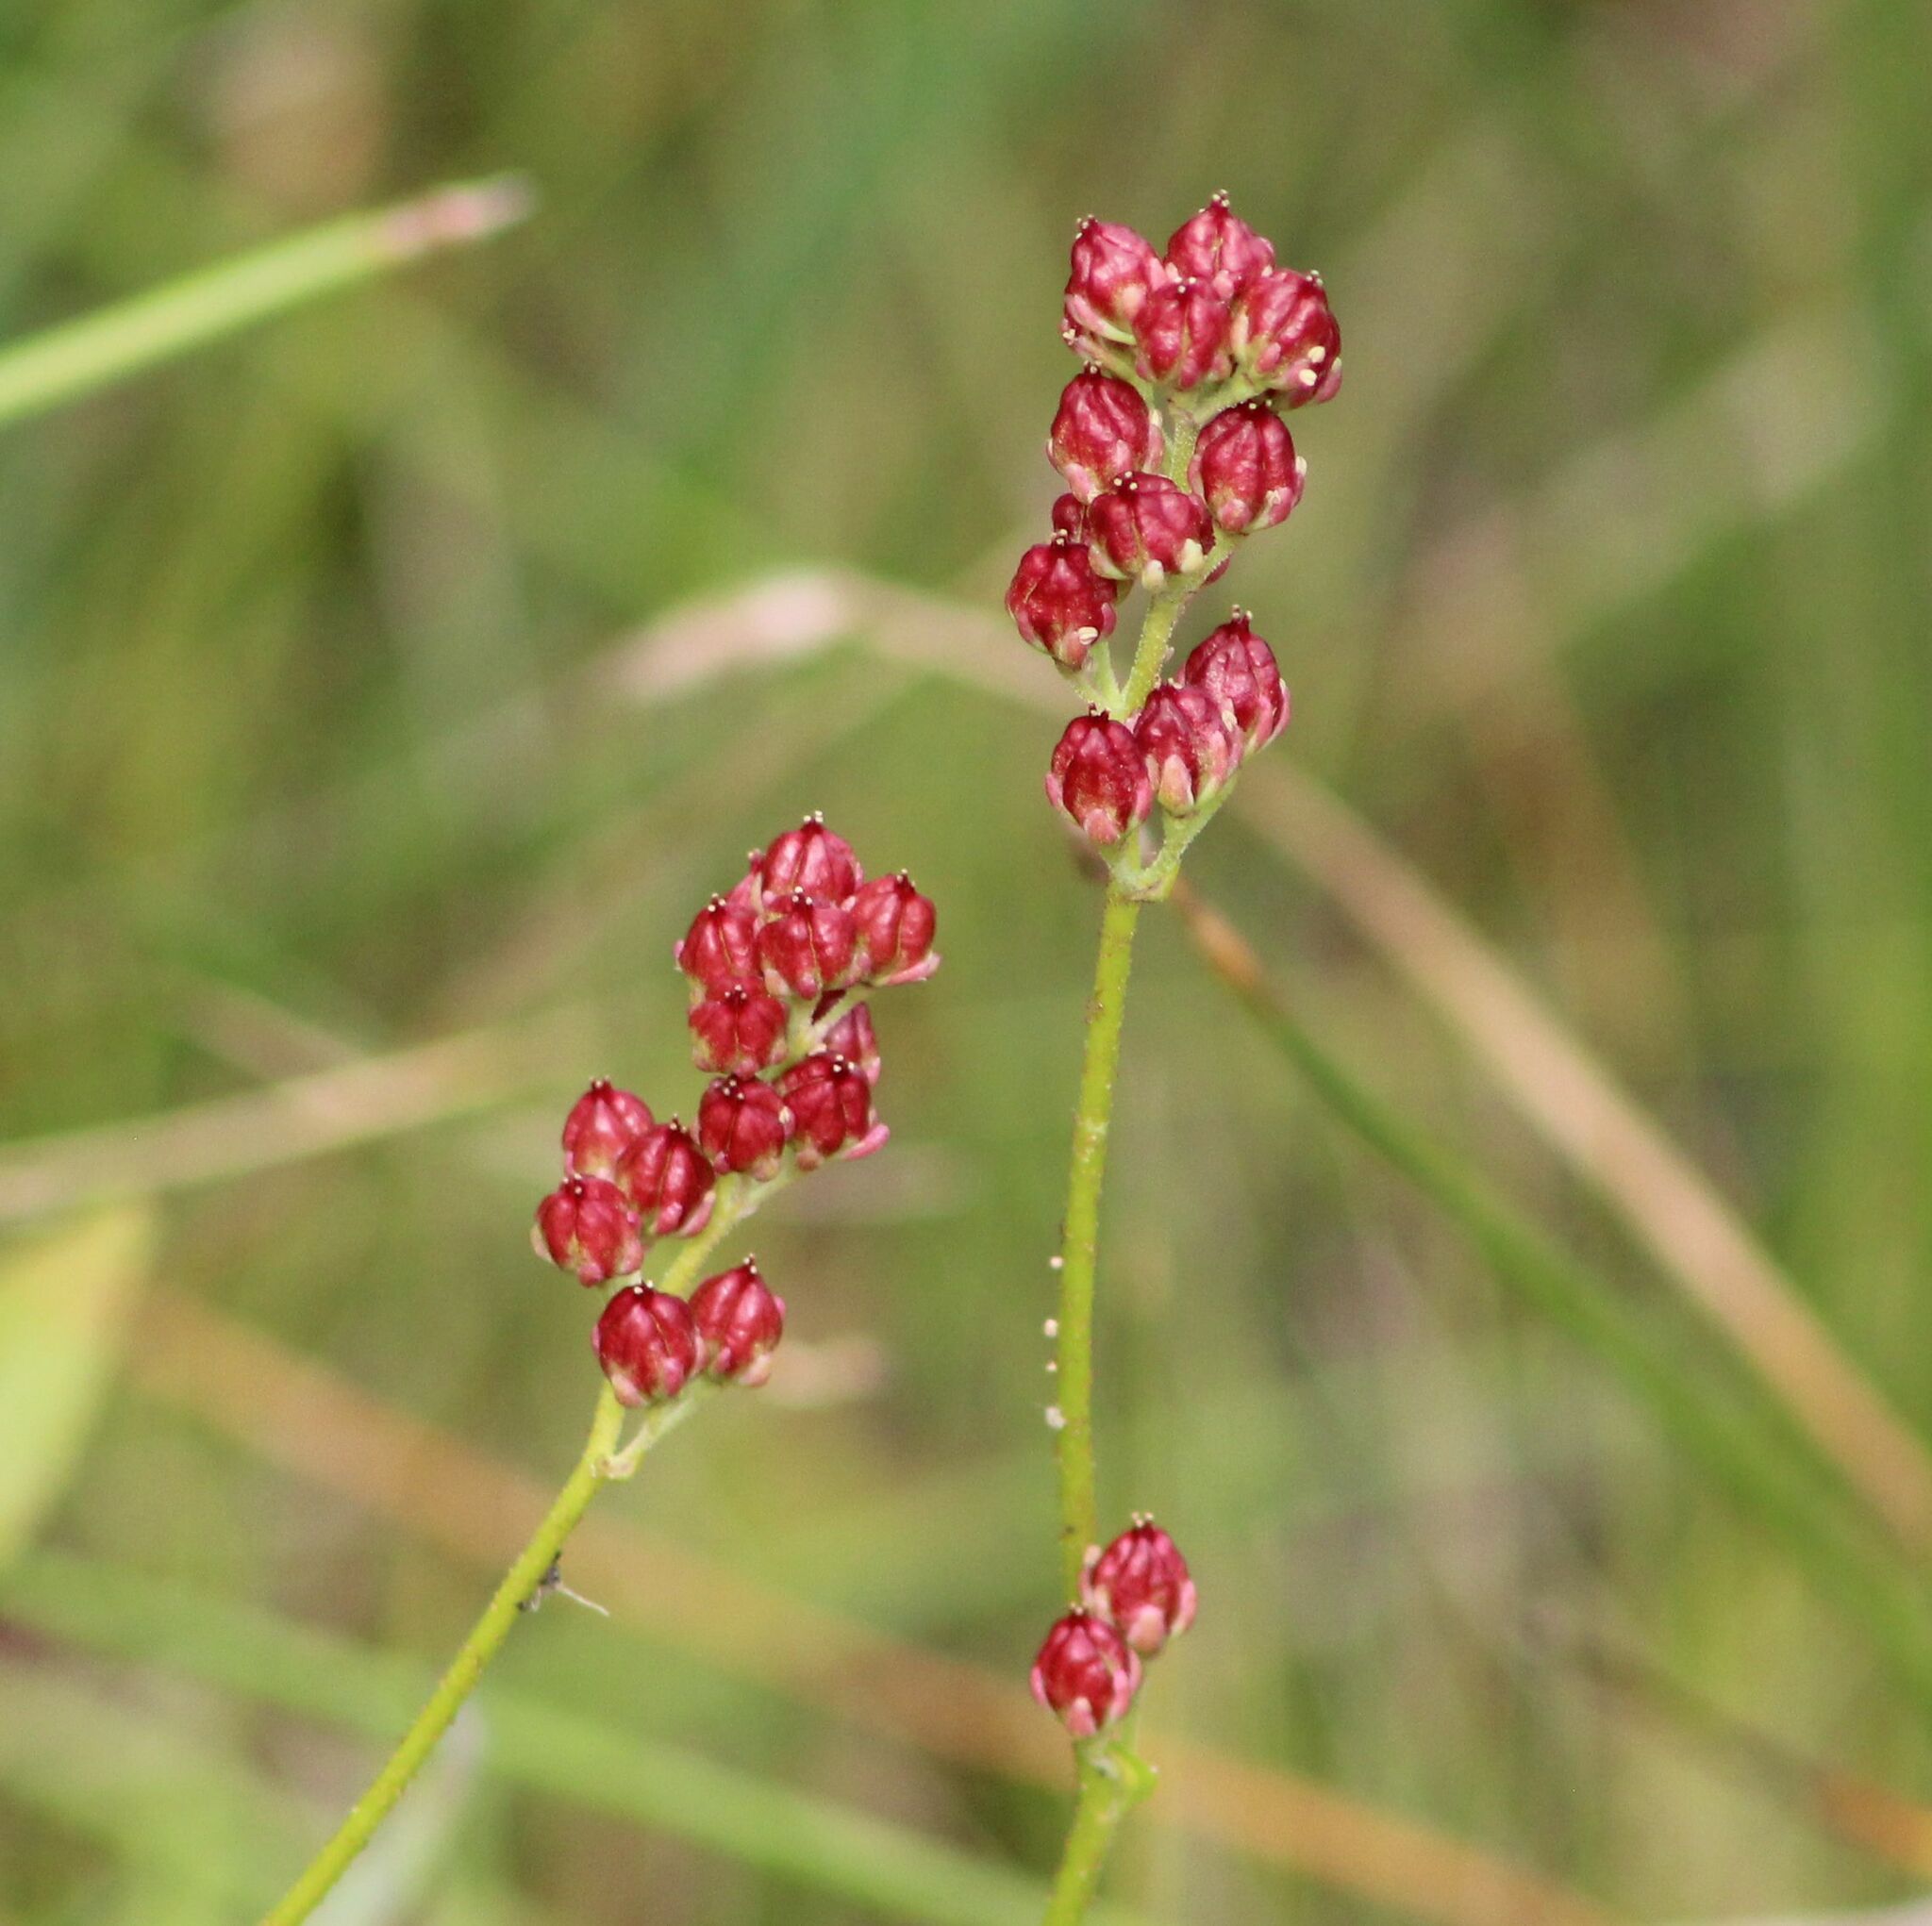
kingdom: Plantae
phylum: Tracheophyta
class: Liliopsida
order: Alismatales
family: Tofieldiaceae
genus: Triantha
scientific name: Triantha glutinosa
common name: Glutinous tofieldia
